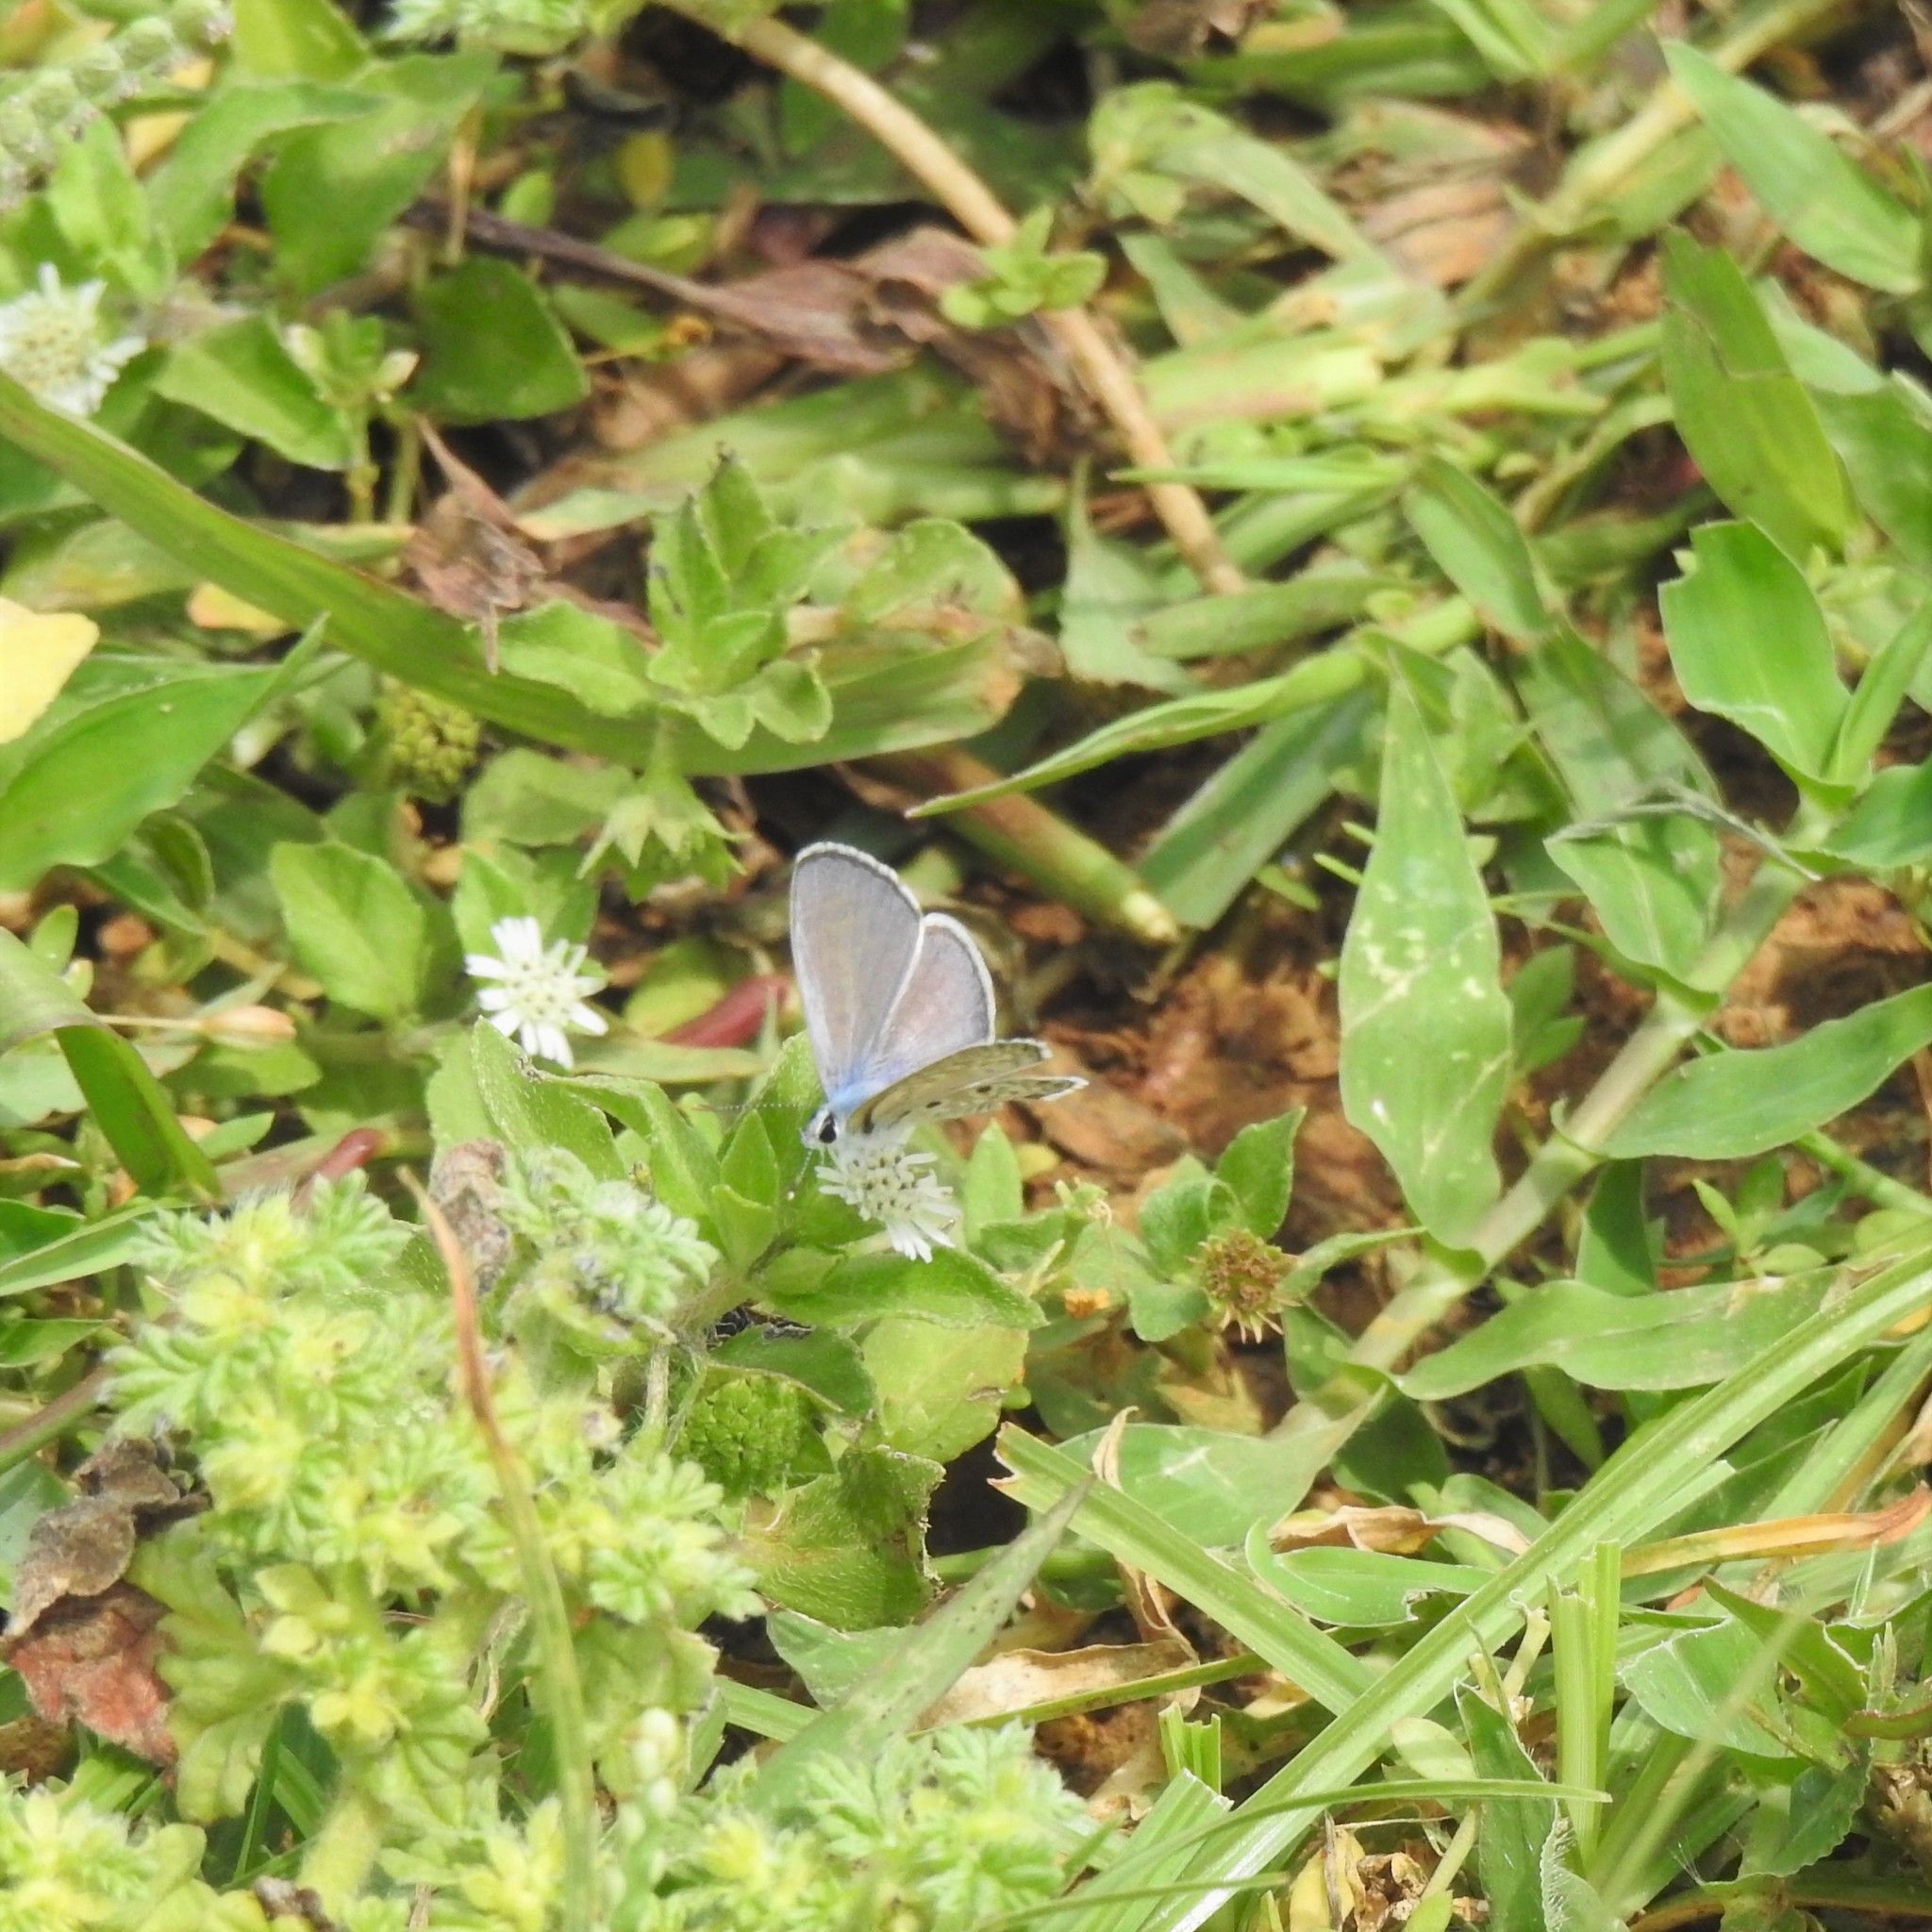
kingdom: Animalia
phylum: Arthropoda
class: Insecta
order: Lepidoptera
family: Lycaenidae
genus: Azanus
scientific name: Azanus jesous
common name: African babul blue
